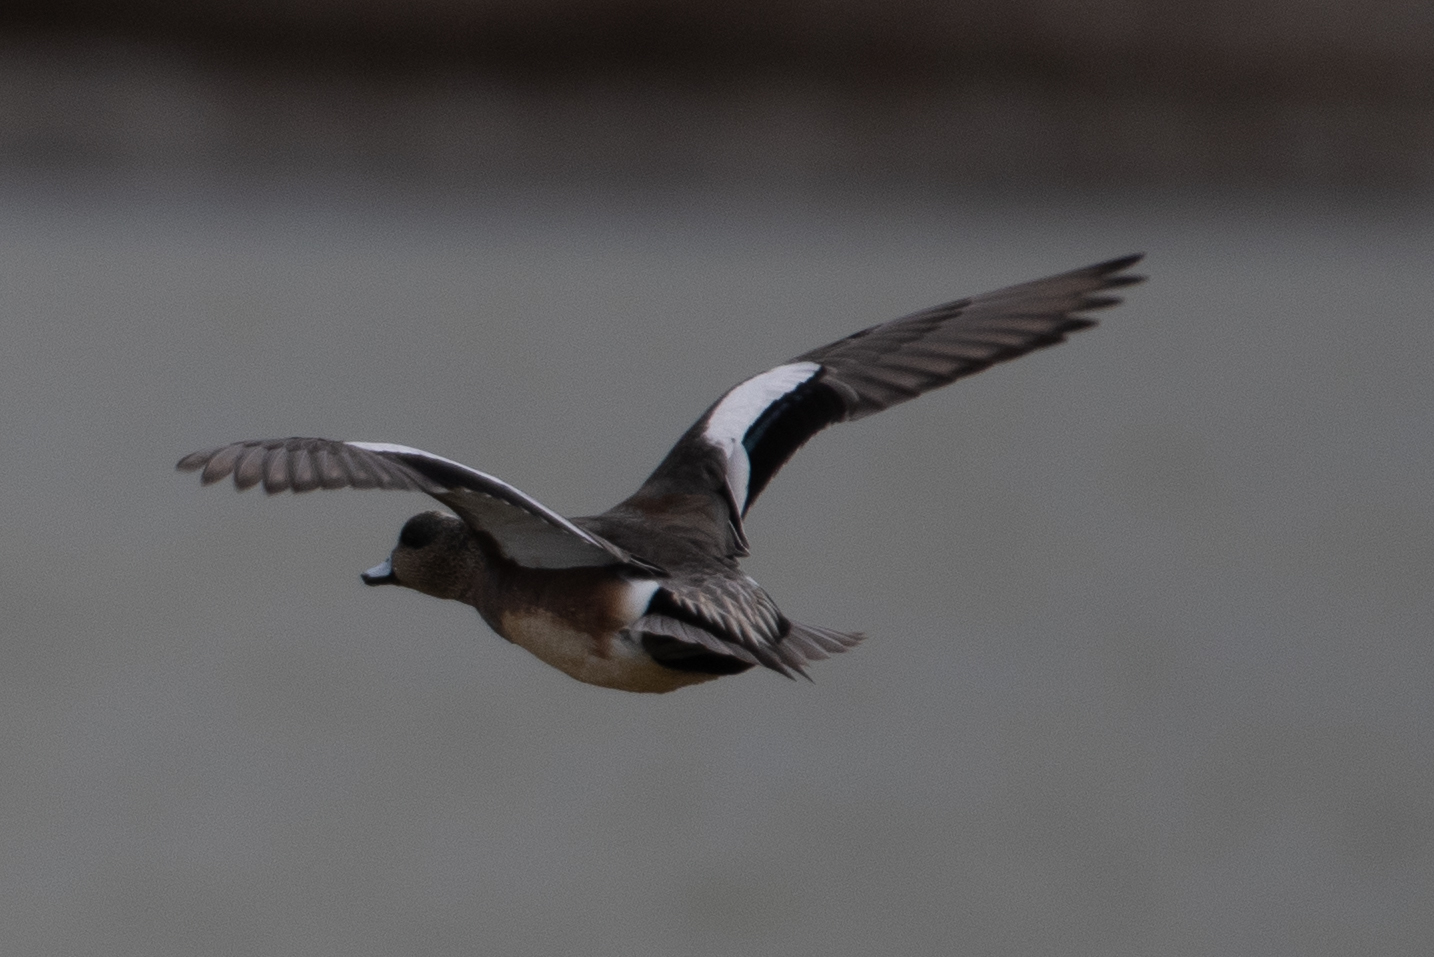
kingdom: Animalia
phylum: Chordata
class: Aves
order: Anseriformes
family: Anatidae
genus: Mareca
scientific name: Mareca americana
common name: American wigeon
